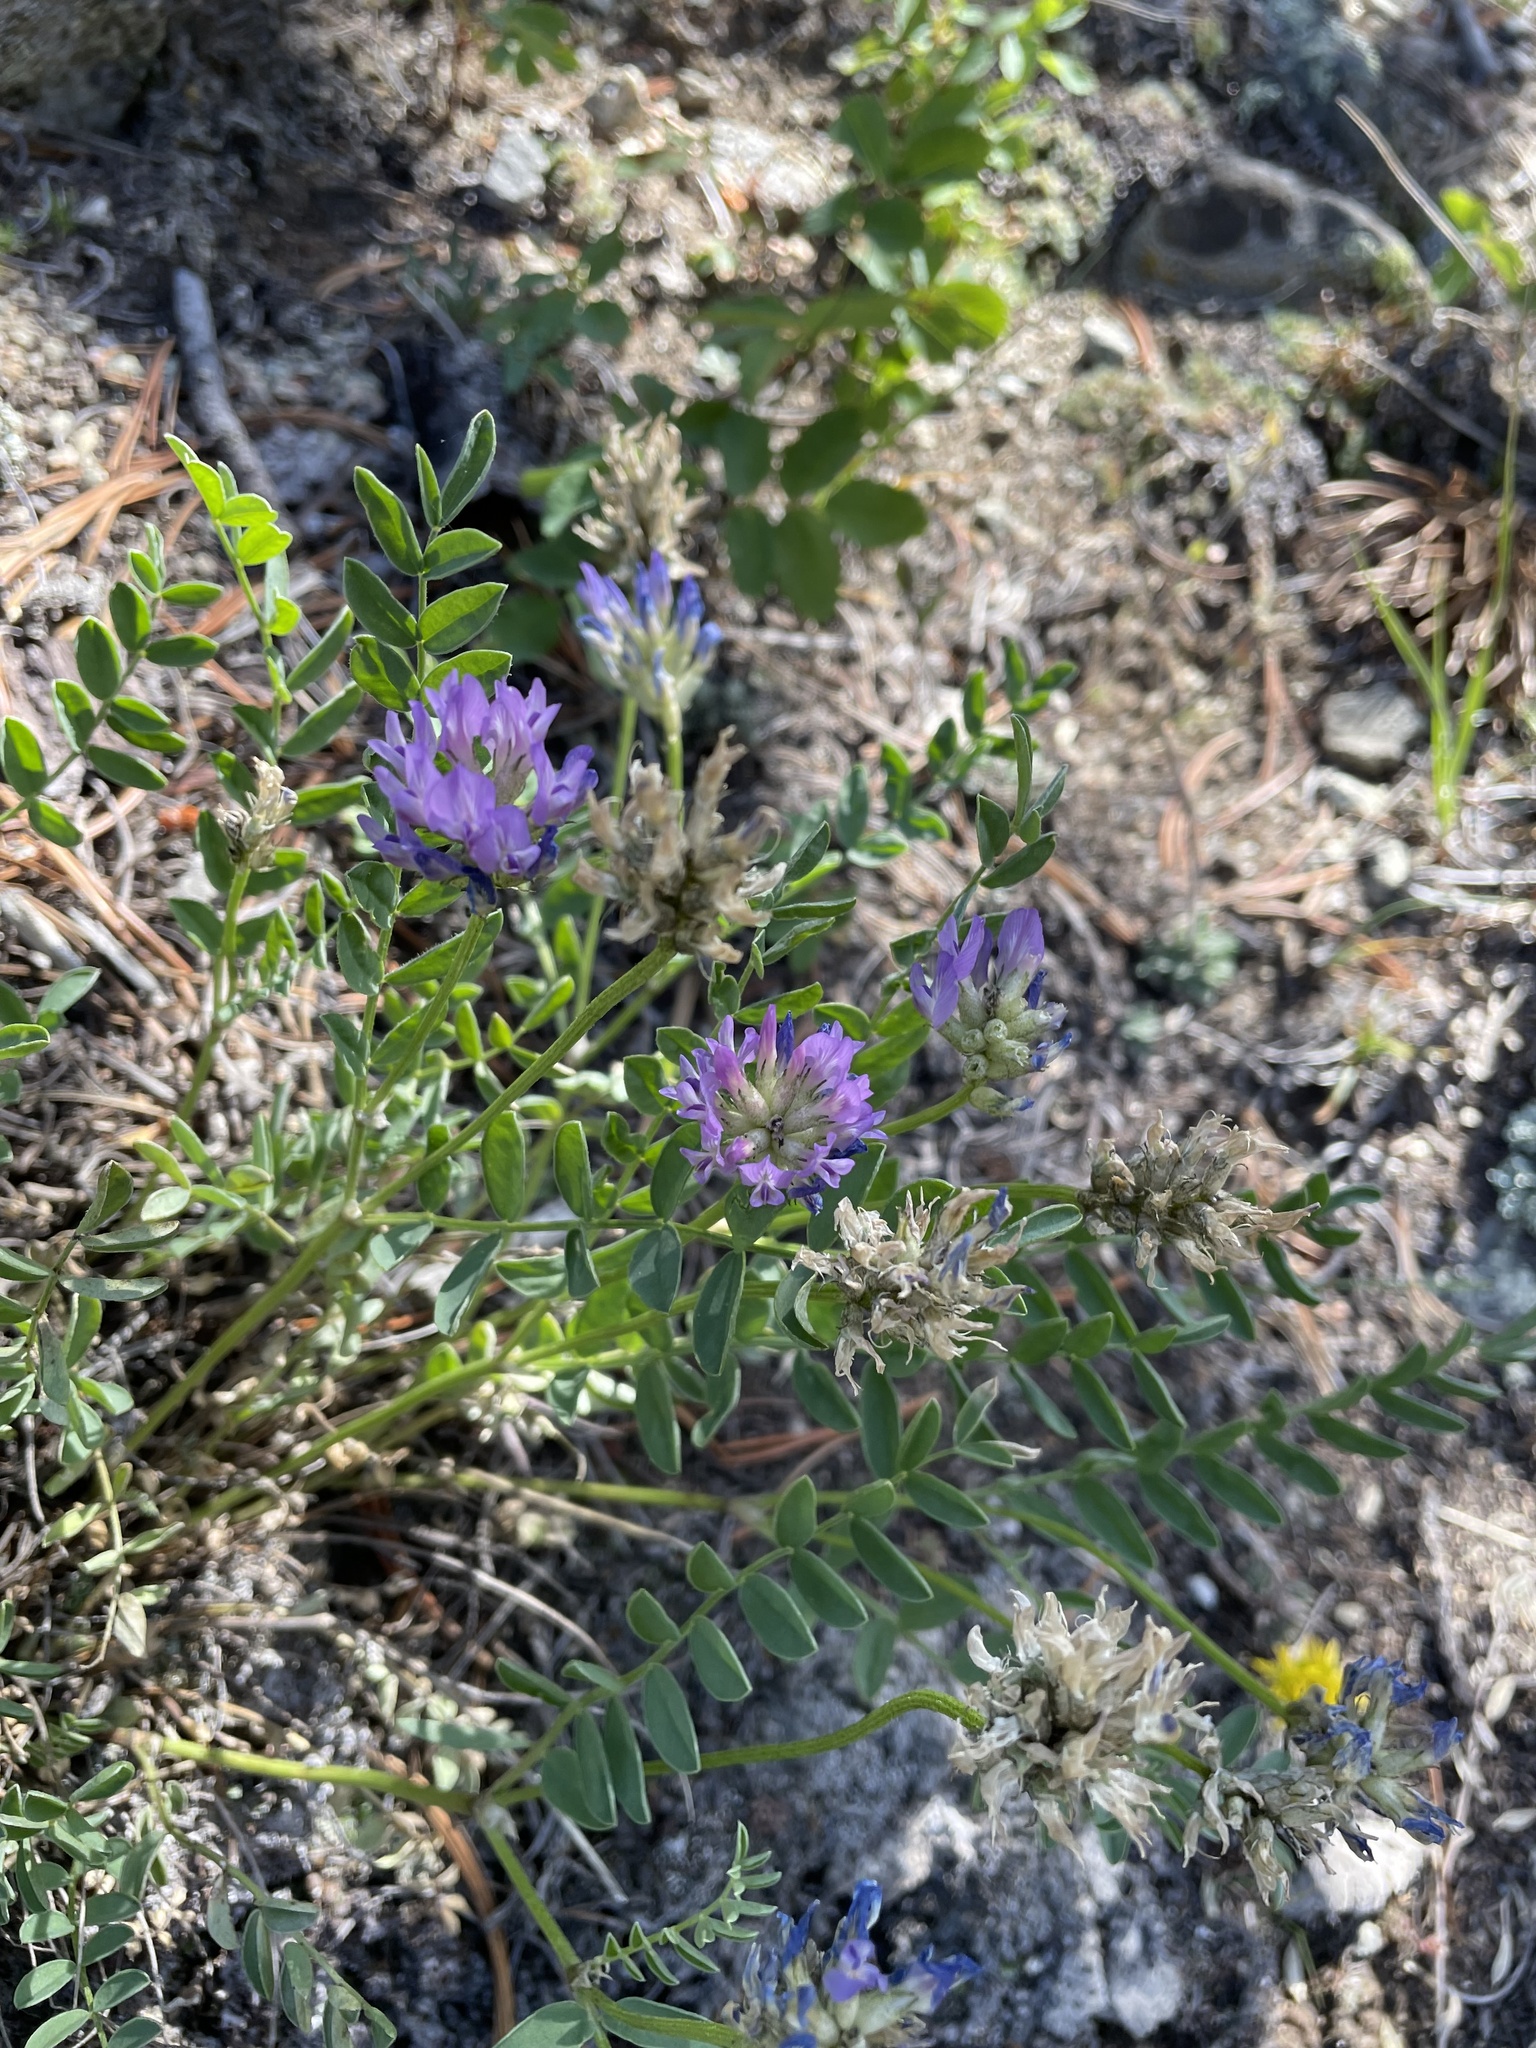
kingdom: Plantae
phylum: Tracheophyta
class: Magnoliopsida
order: Fabales
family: Fabaceae
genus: Astragalus
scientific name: Astragalus laxmannii
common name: Laxmann's milk-vetch
